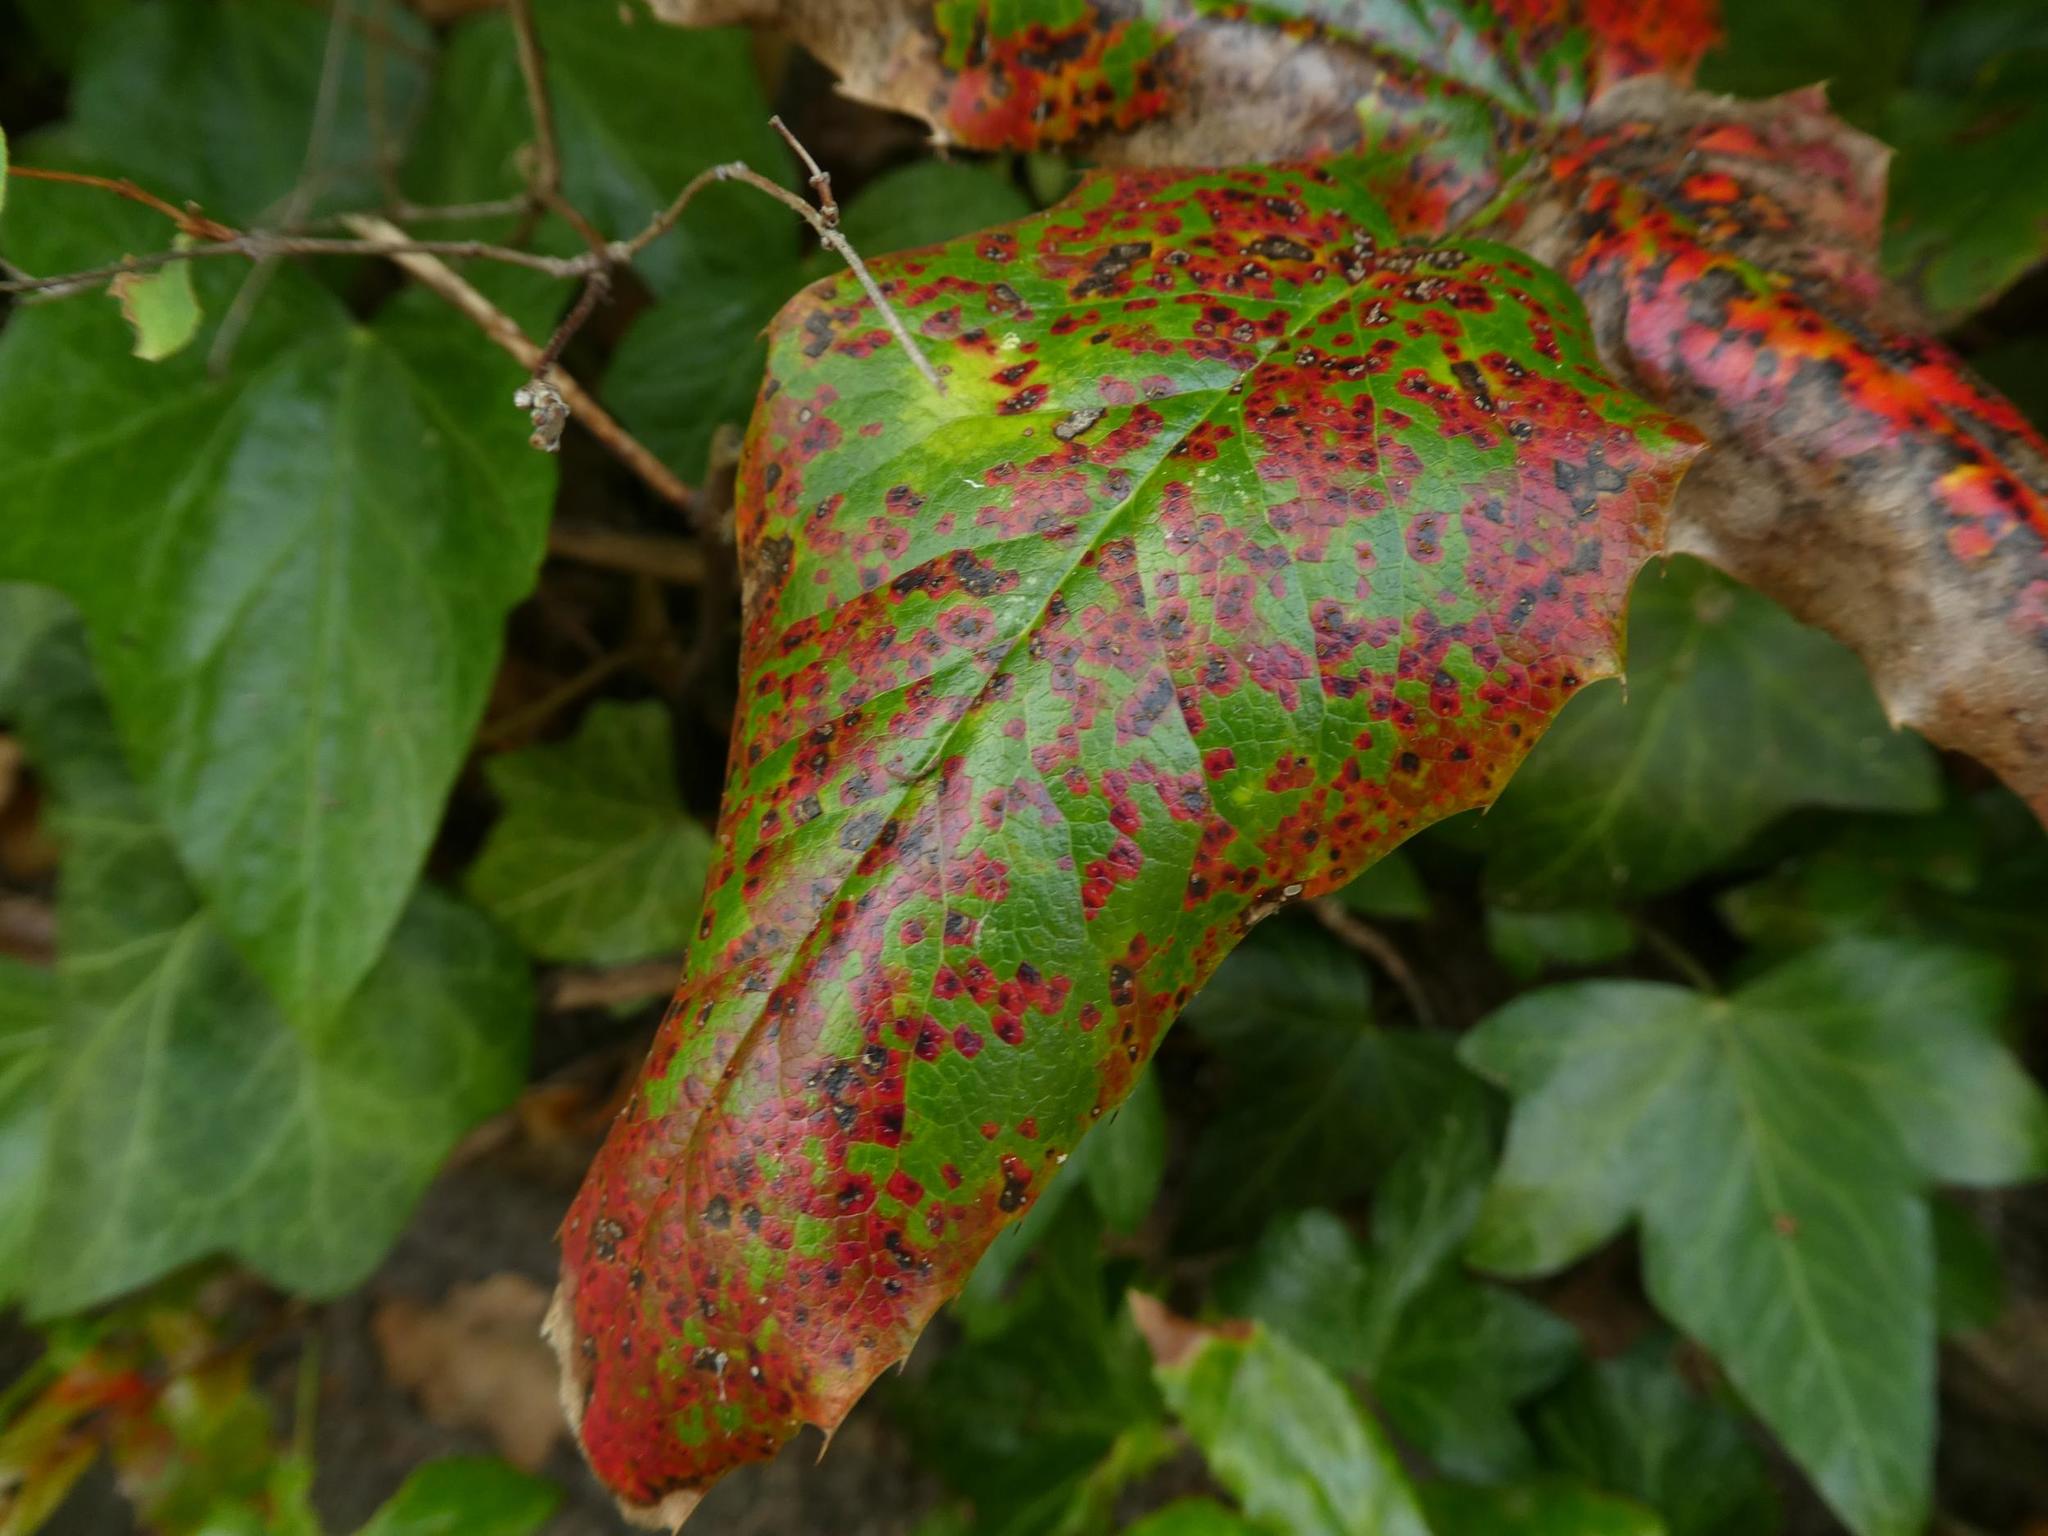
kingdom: Fungi
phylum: Basidiomycota
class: Pucciniomycetes
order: Pucciniales
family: Pucciniaceae
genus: Cumminsiella
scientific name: Cumminsiella mirabilissima
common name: Mahonia rust
